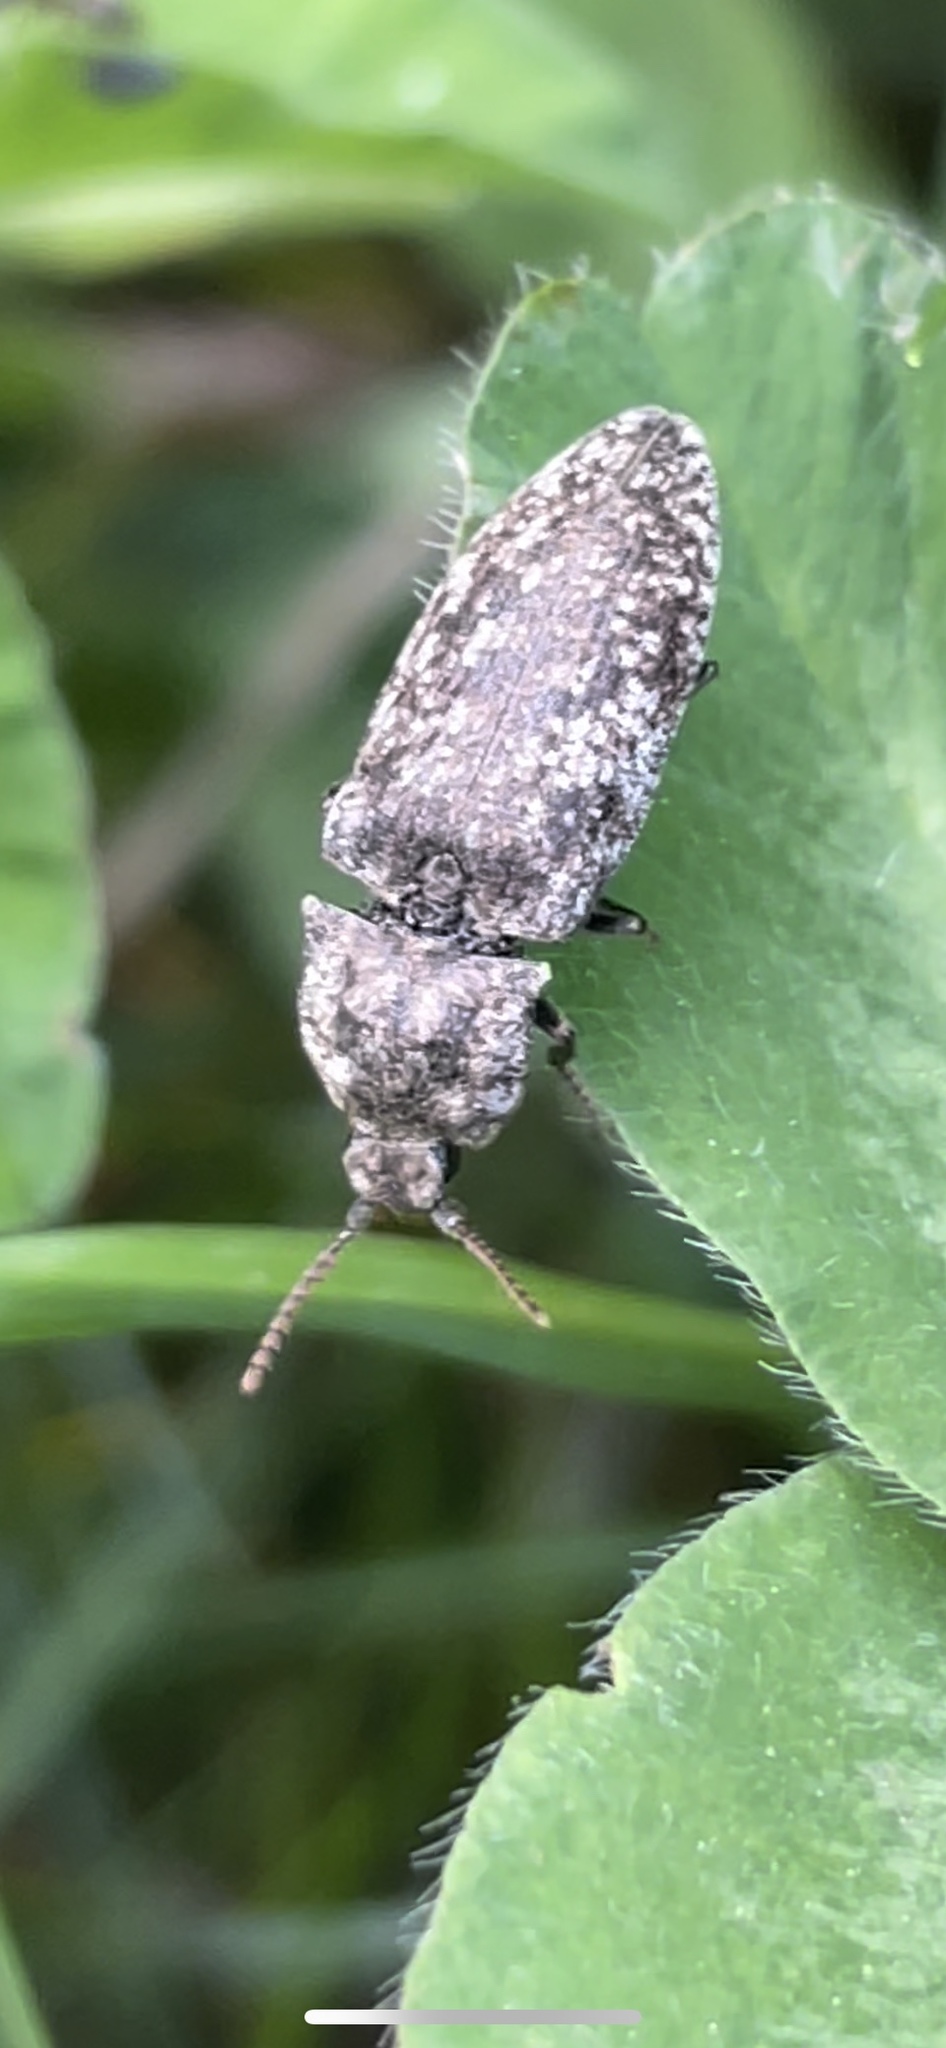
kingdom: Animalia
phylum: Arthropoda
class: Insecta
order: Coleoptera
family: Elateridae
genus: Agrypnus
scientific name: Agrypnus murinus
